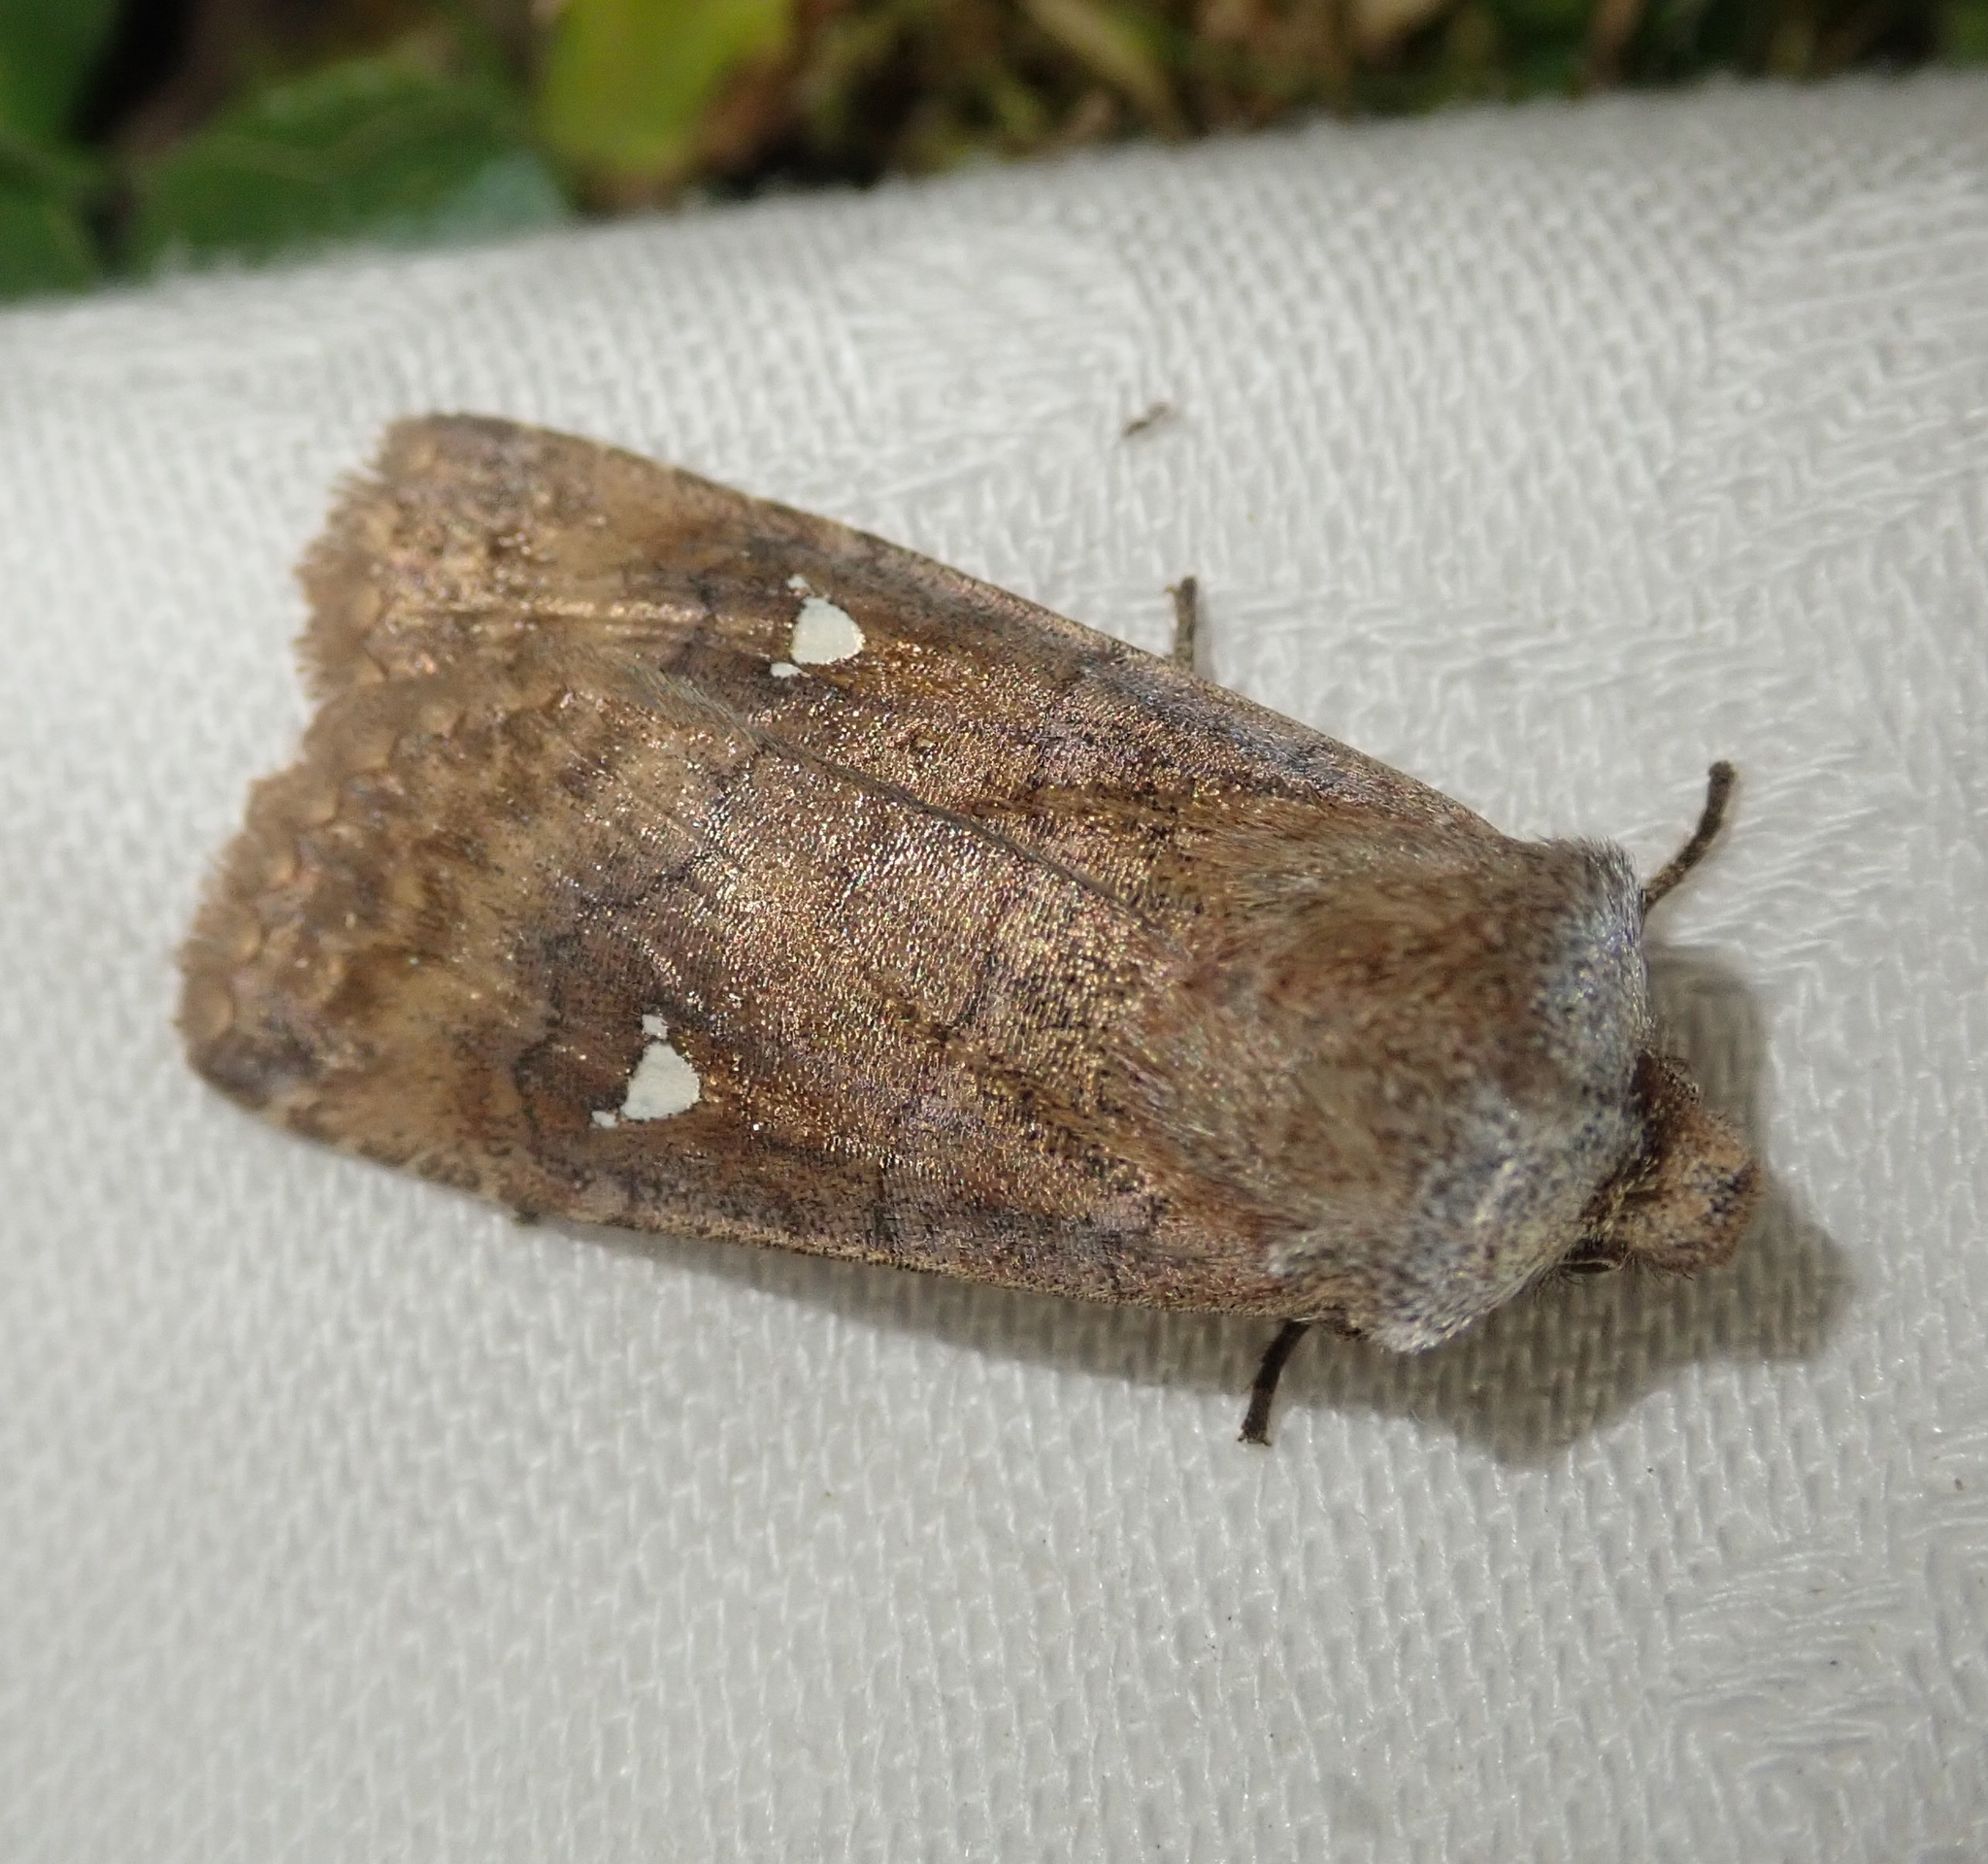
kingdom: Animalia
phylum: Arthropoda
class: Insecta
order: Lepidoptera
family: Noctuidae
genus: Eupsilia
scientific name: Eupsilia transversa
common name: Satellite
